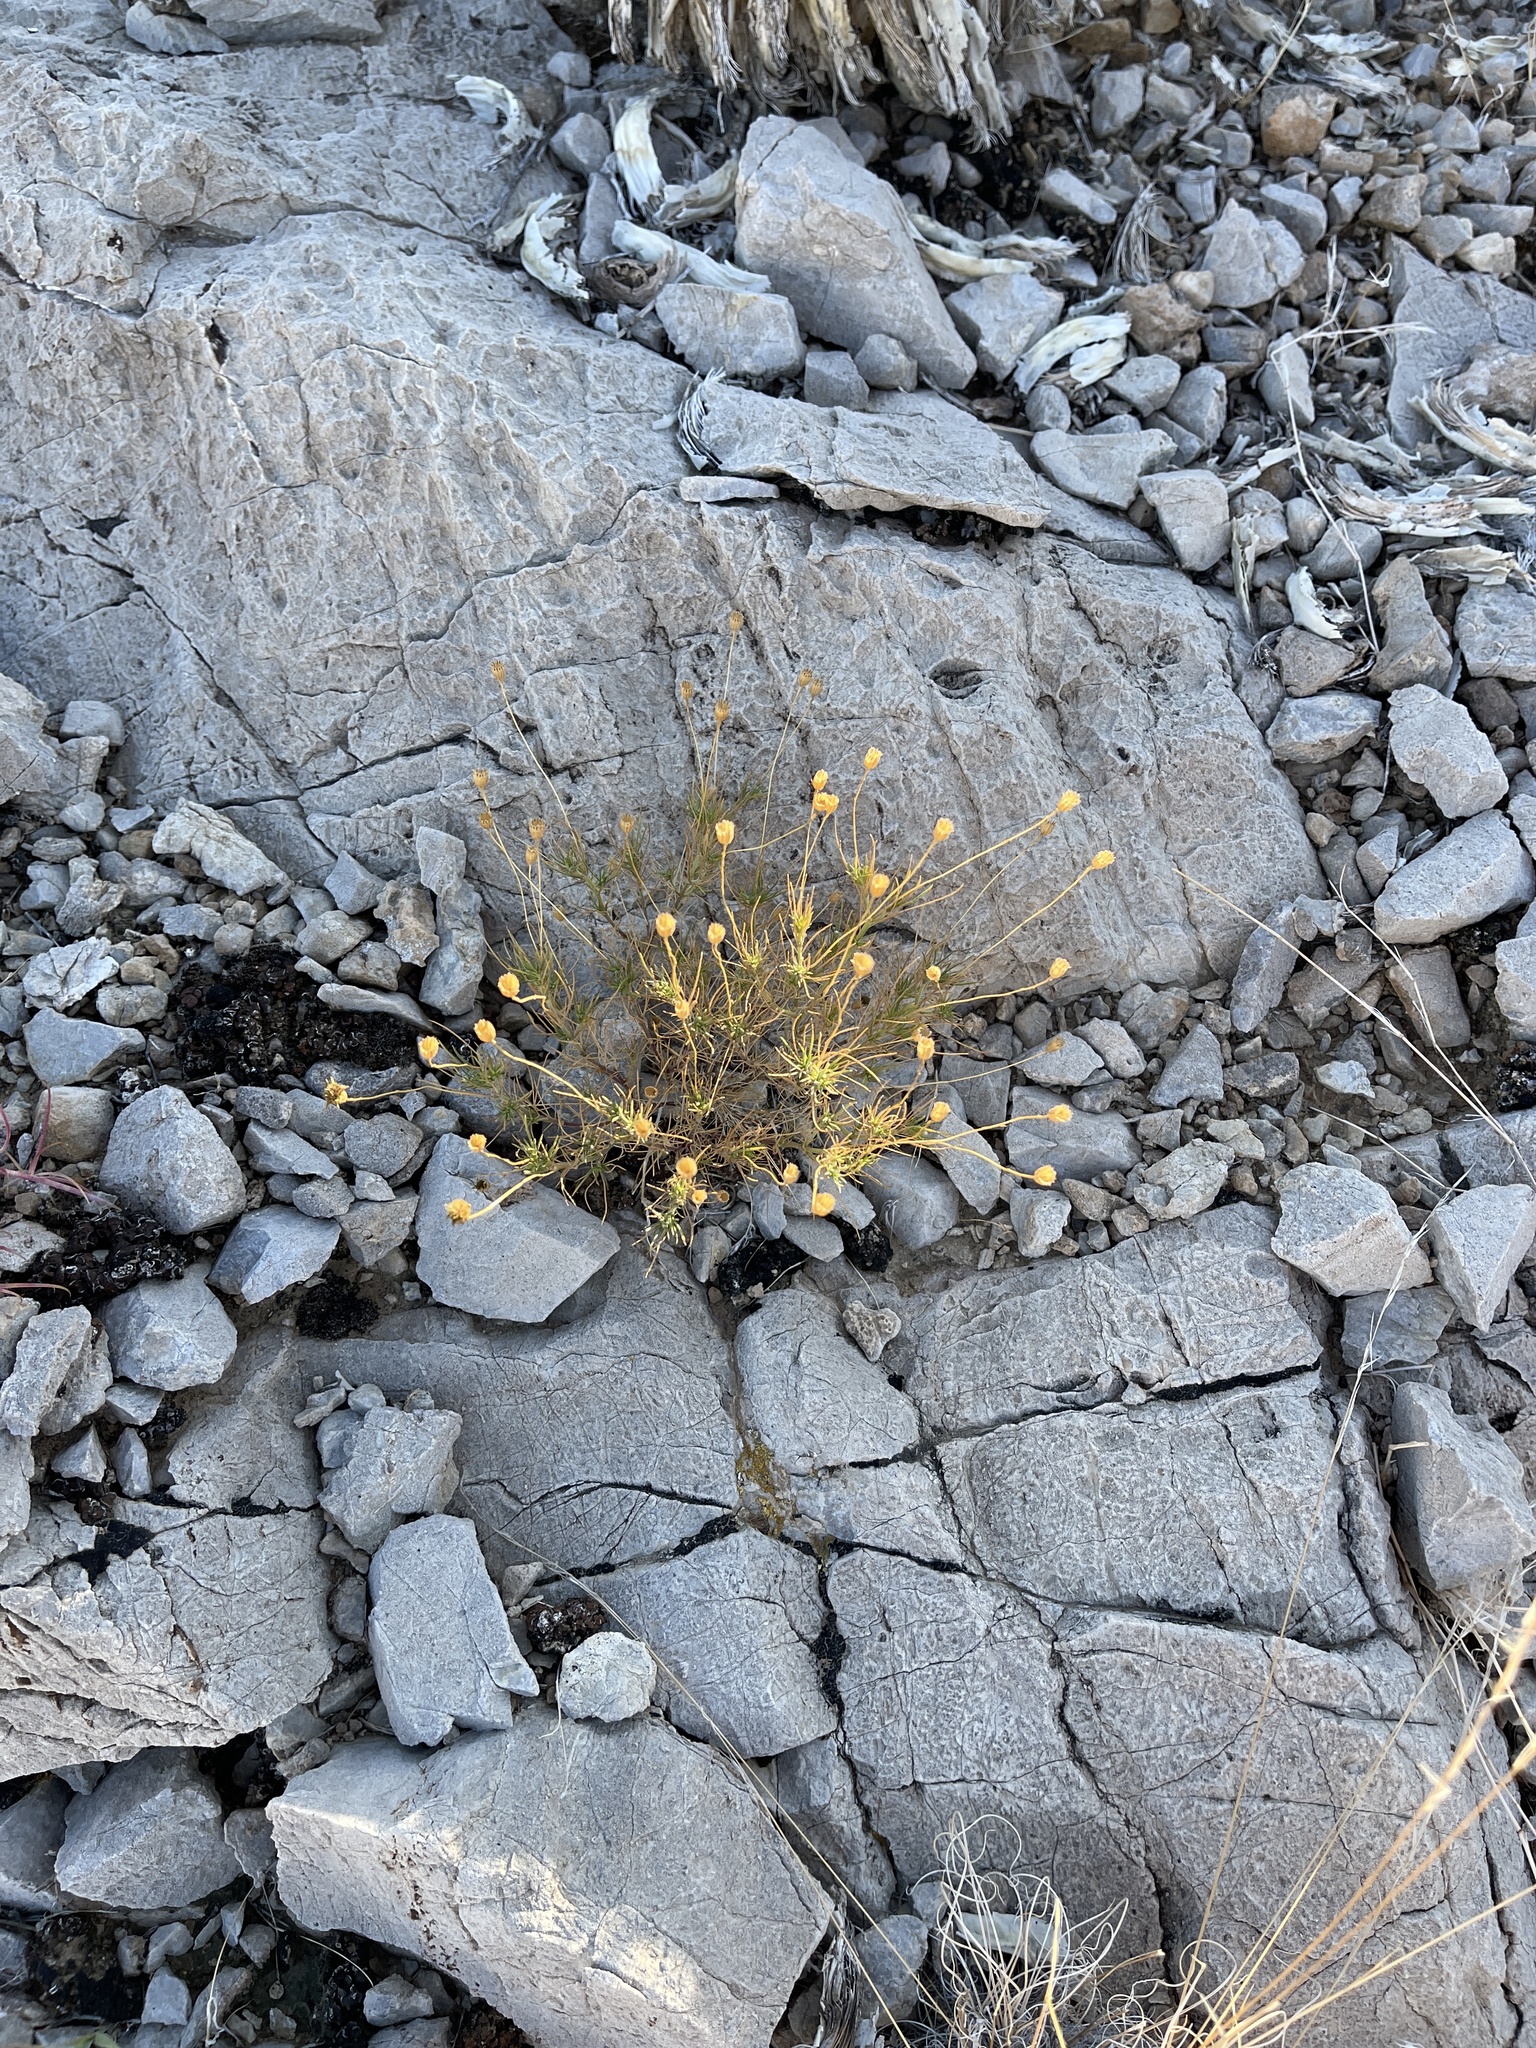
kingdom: Plantae
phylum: Tracheophyta
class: Magnoliopsida
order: Asterales
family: Asteraceae
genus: Thymophylla
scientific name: Thymophylla pentachaeta
